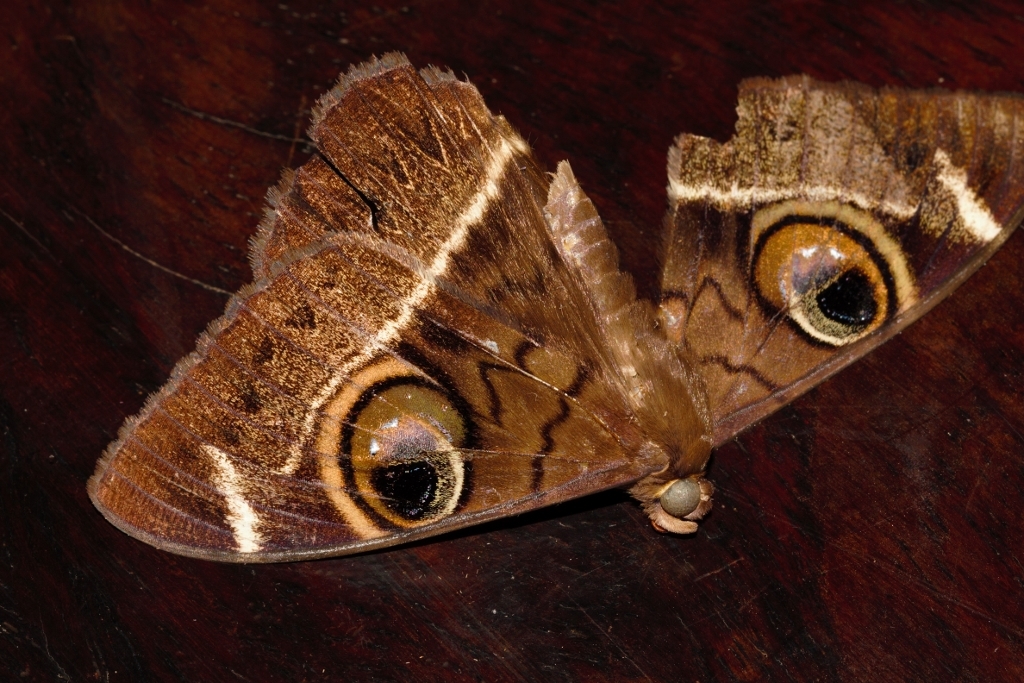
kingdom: Animalia
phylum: Arthropoda
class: Insecta
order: Lepidoptera
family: Erebidae
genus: Cyligramma
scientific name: Cyligramma latona
